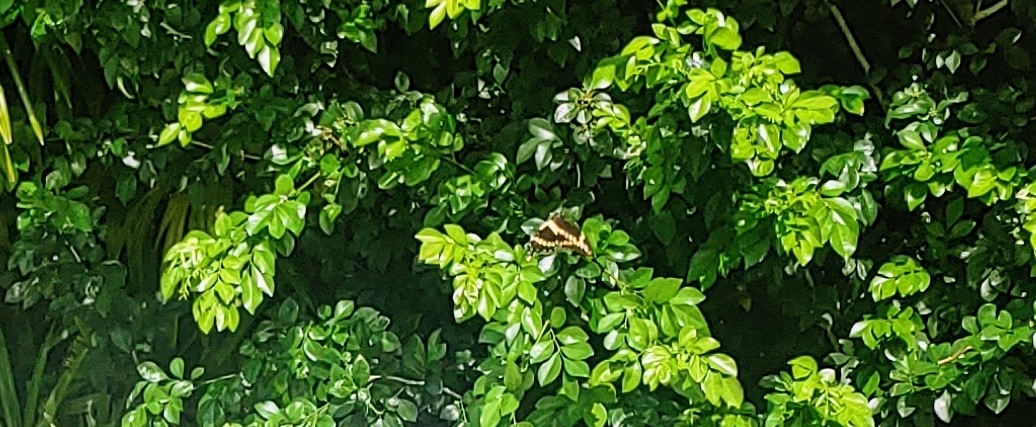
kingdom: Animalia
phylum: Arthropoda
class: Insecta
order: Lepidoptera
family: Papilionidae
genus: Papilio
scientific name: Papilio cresphontes
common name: Giant swallowtail
